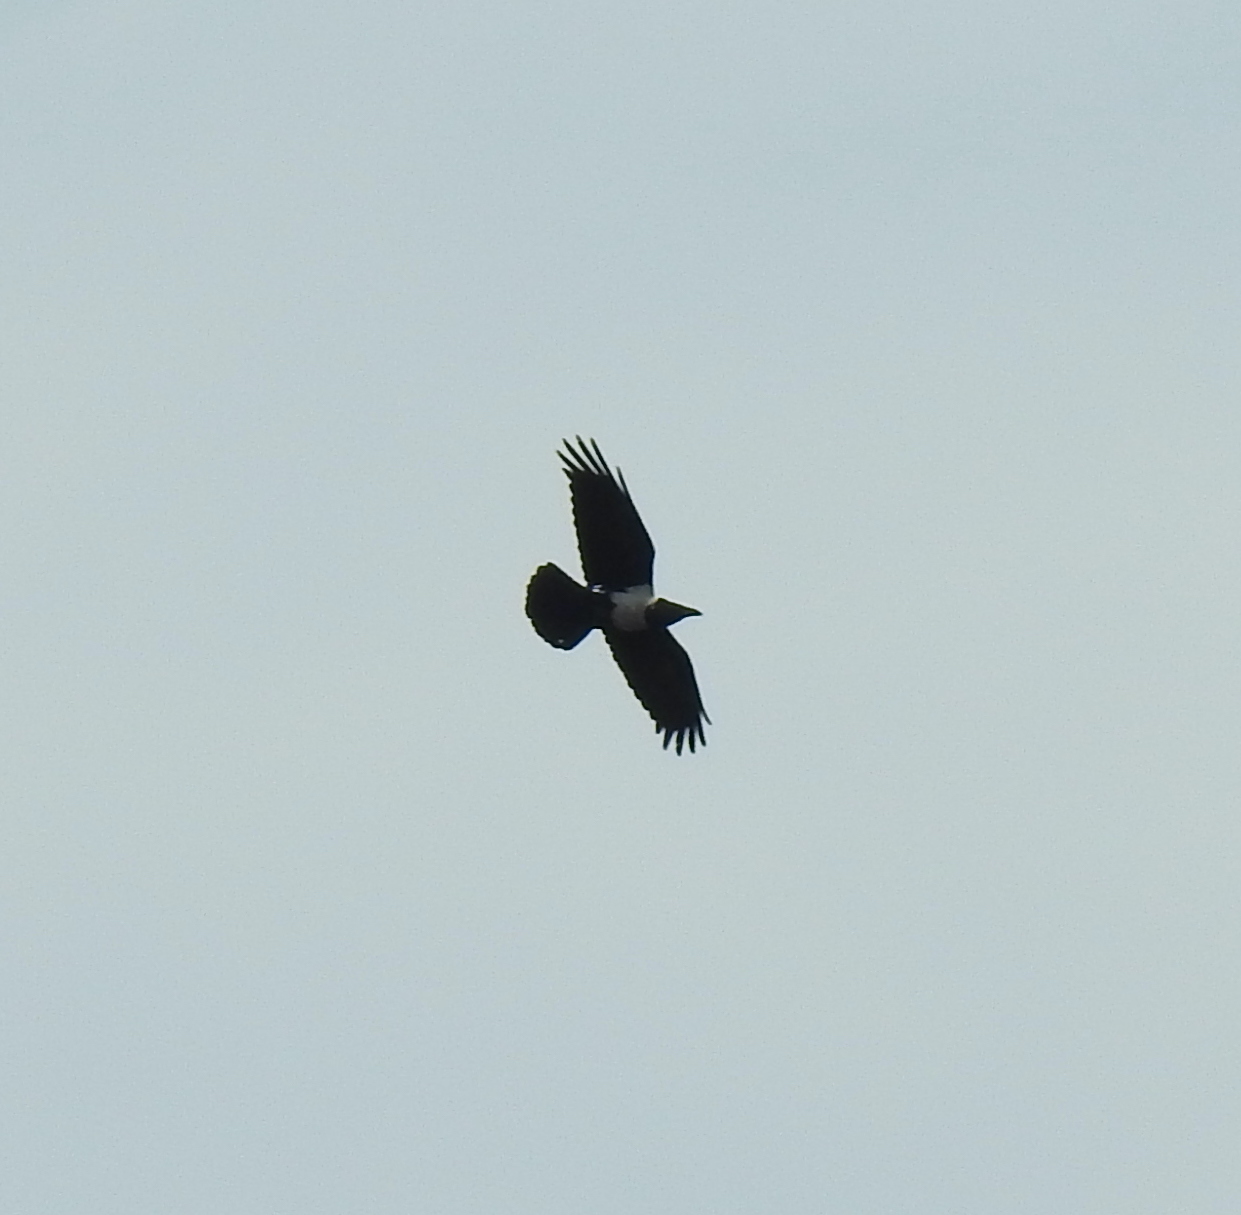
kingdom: Animalia
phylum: Chordata
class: Aves
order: Passeriformes
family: Corvidae
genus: Corvus
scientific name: Corvus albus
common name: Pied crow
